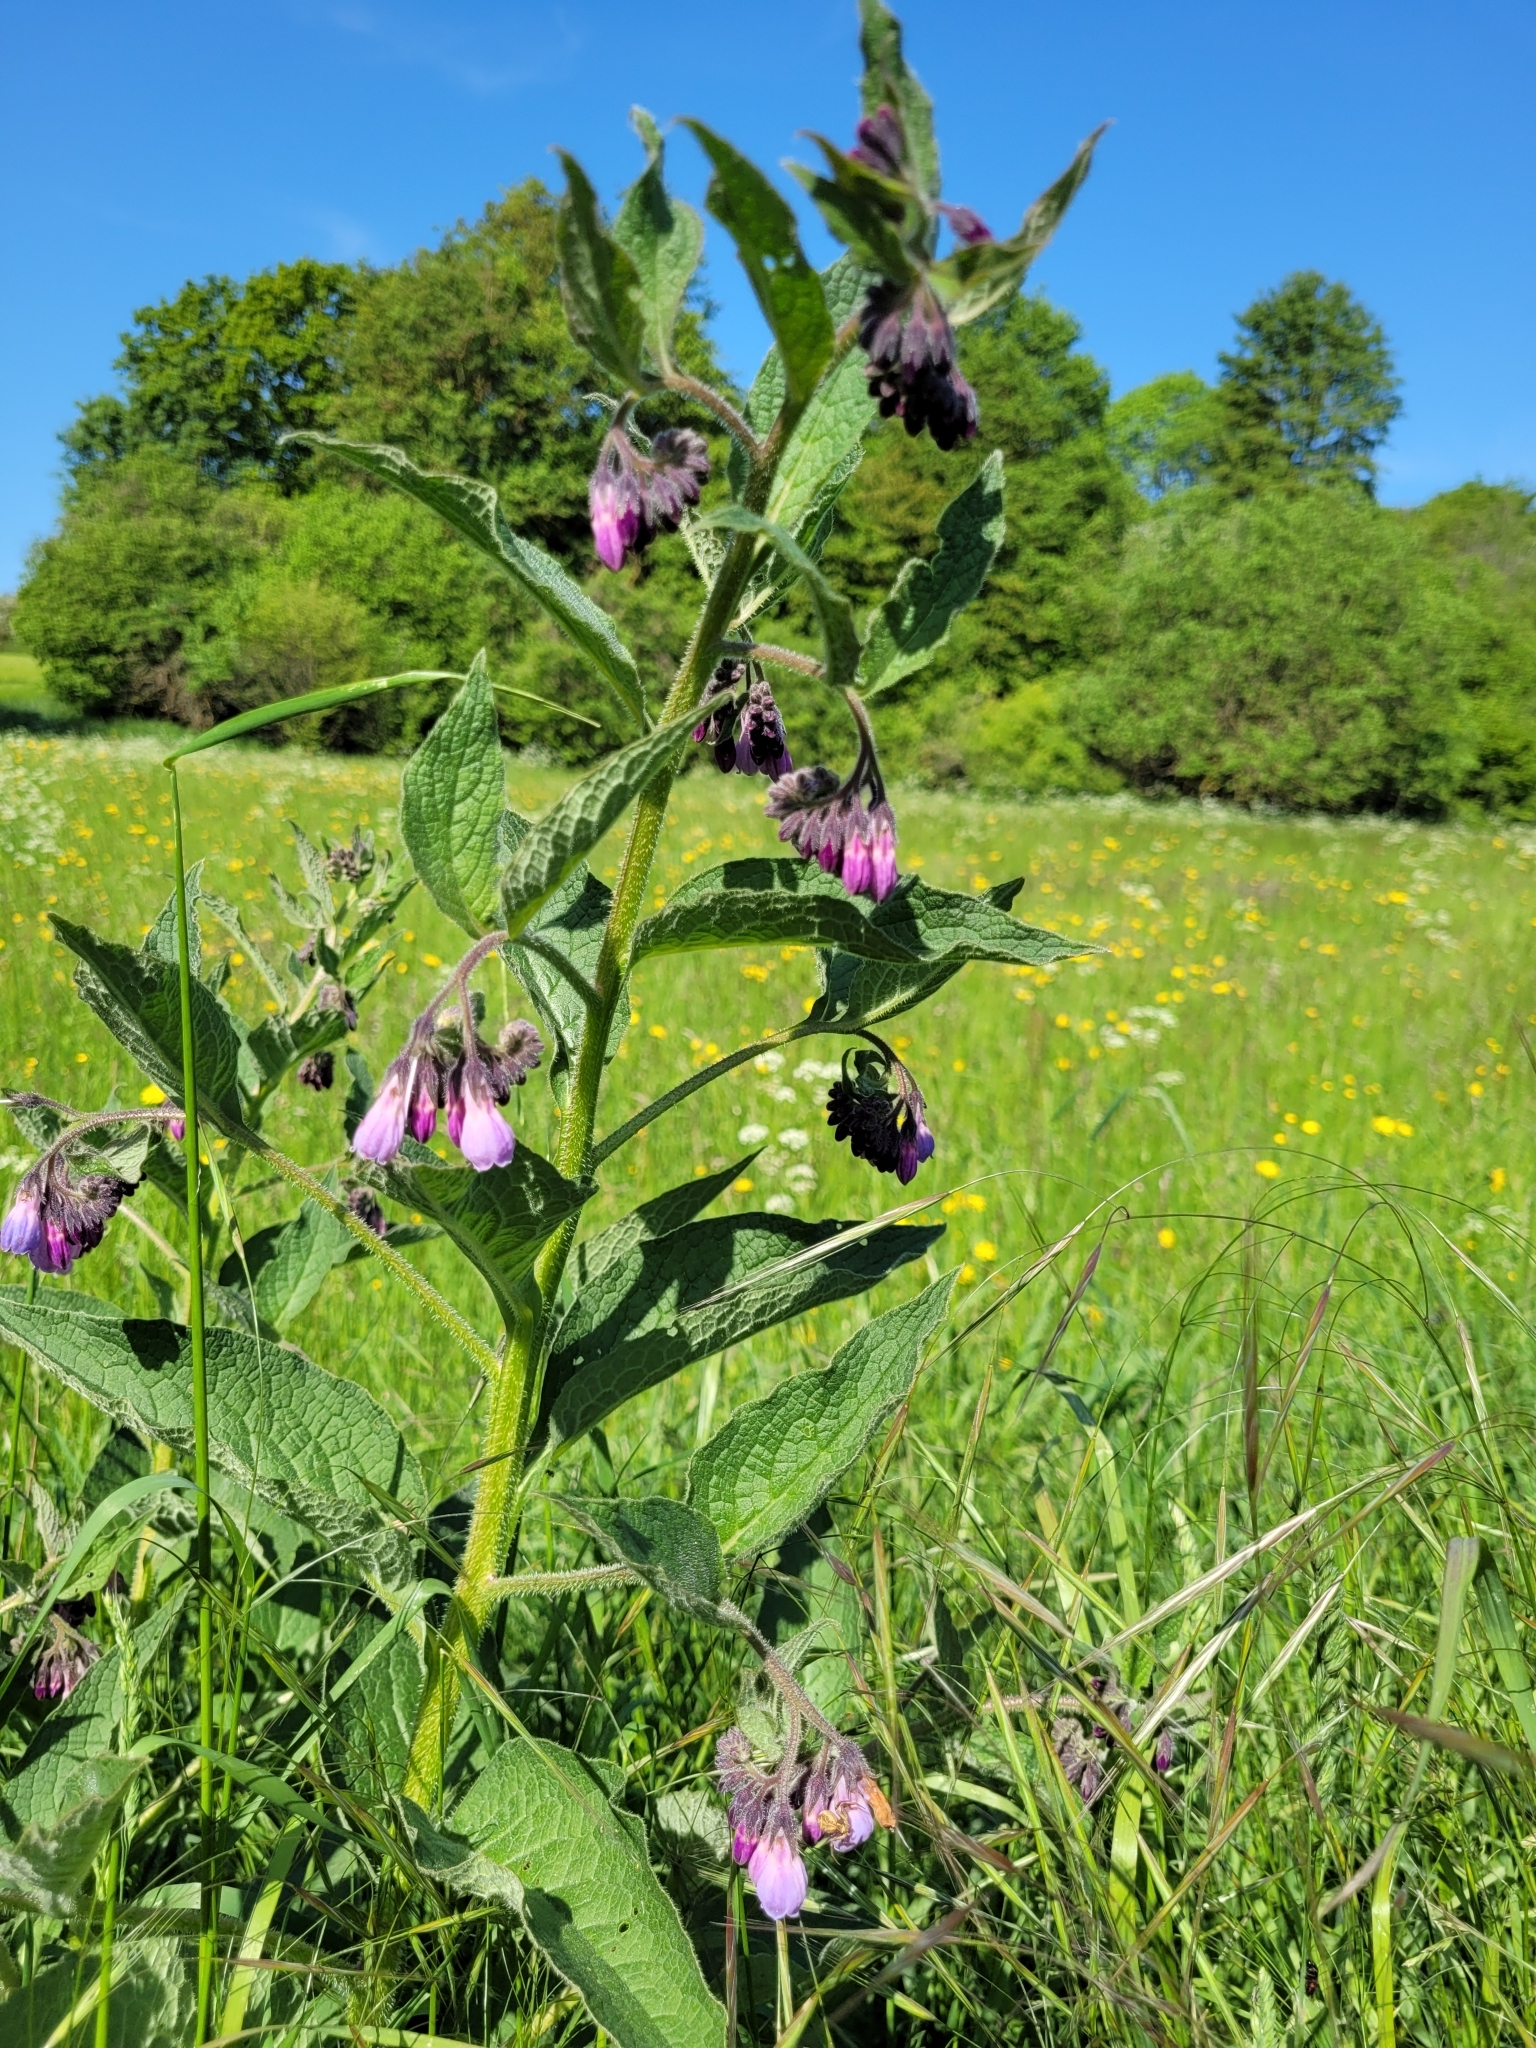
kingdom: Plantae
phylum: Tracheophyta
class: Magnoliopsida
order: Boraginales
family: Boraginaceae
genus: Symphytum
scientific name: Symphytum officinale
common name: Common comfrey
